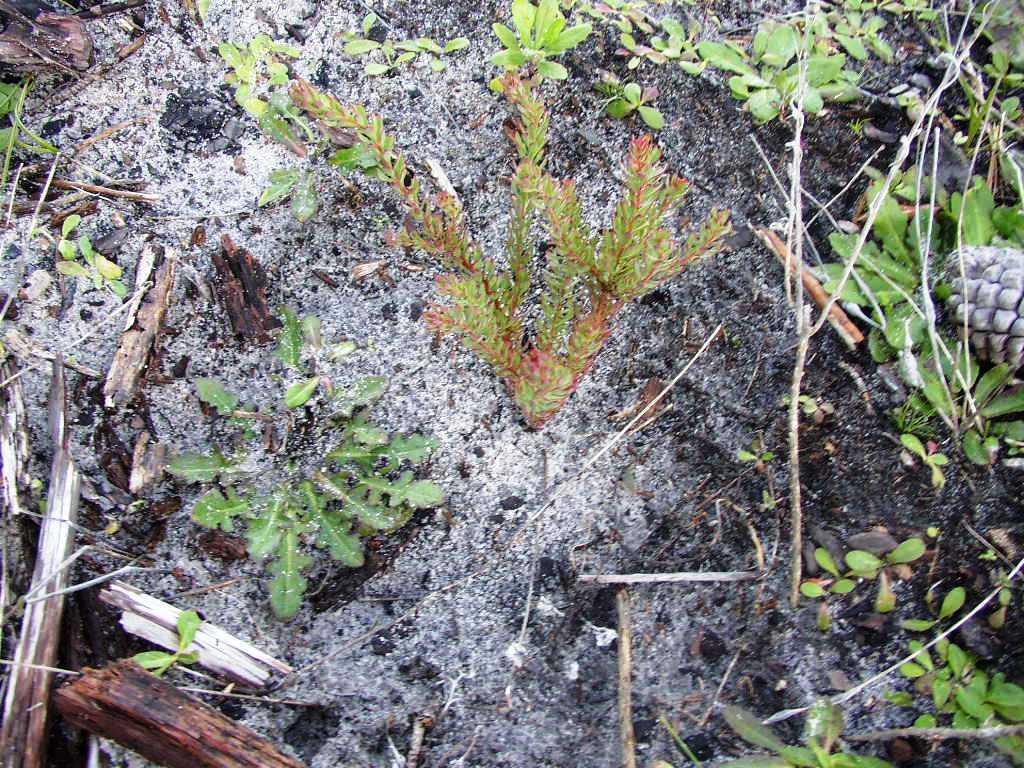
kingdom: Plantae
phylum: Tracheophyta
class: Magnoliopsida
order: Proteales
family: Proteaceae
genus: Leucadendron
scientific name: Leucadendron levisanus
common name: Cape flats conebush
